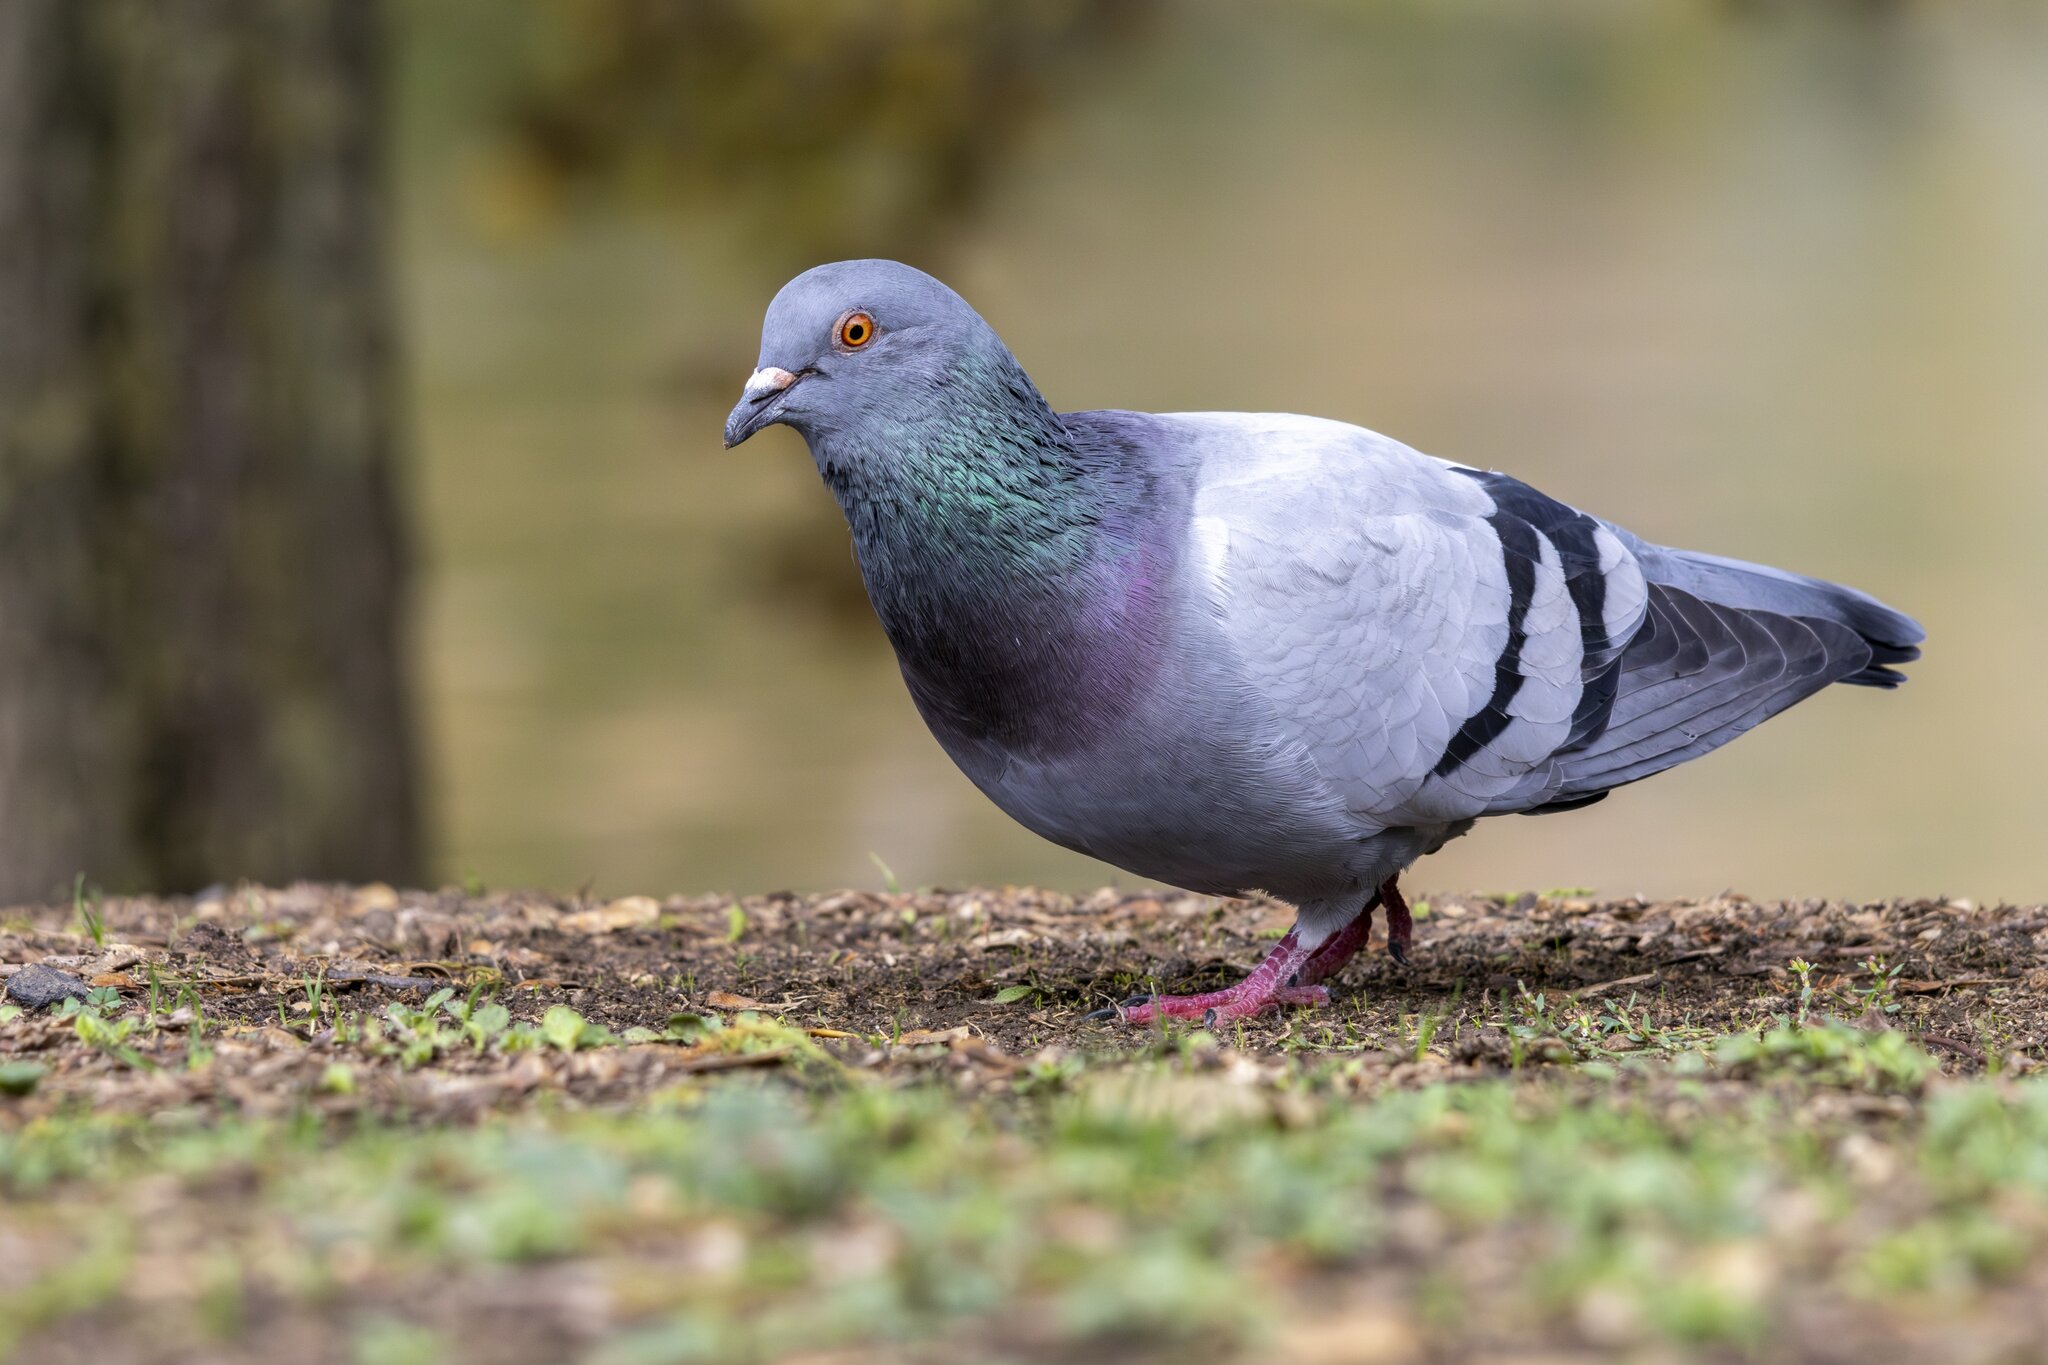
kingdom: Animalia
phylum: Chordata
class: Aves
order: Columbiformes
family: Columbidae
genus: Columba
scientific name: Columba livia
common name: Rock pigeon
